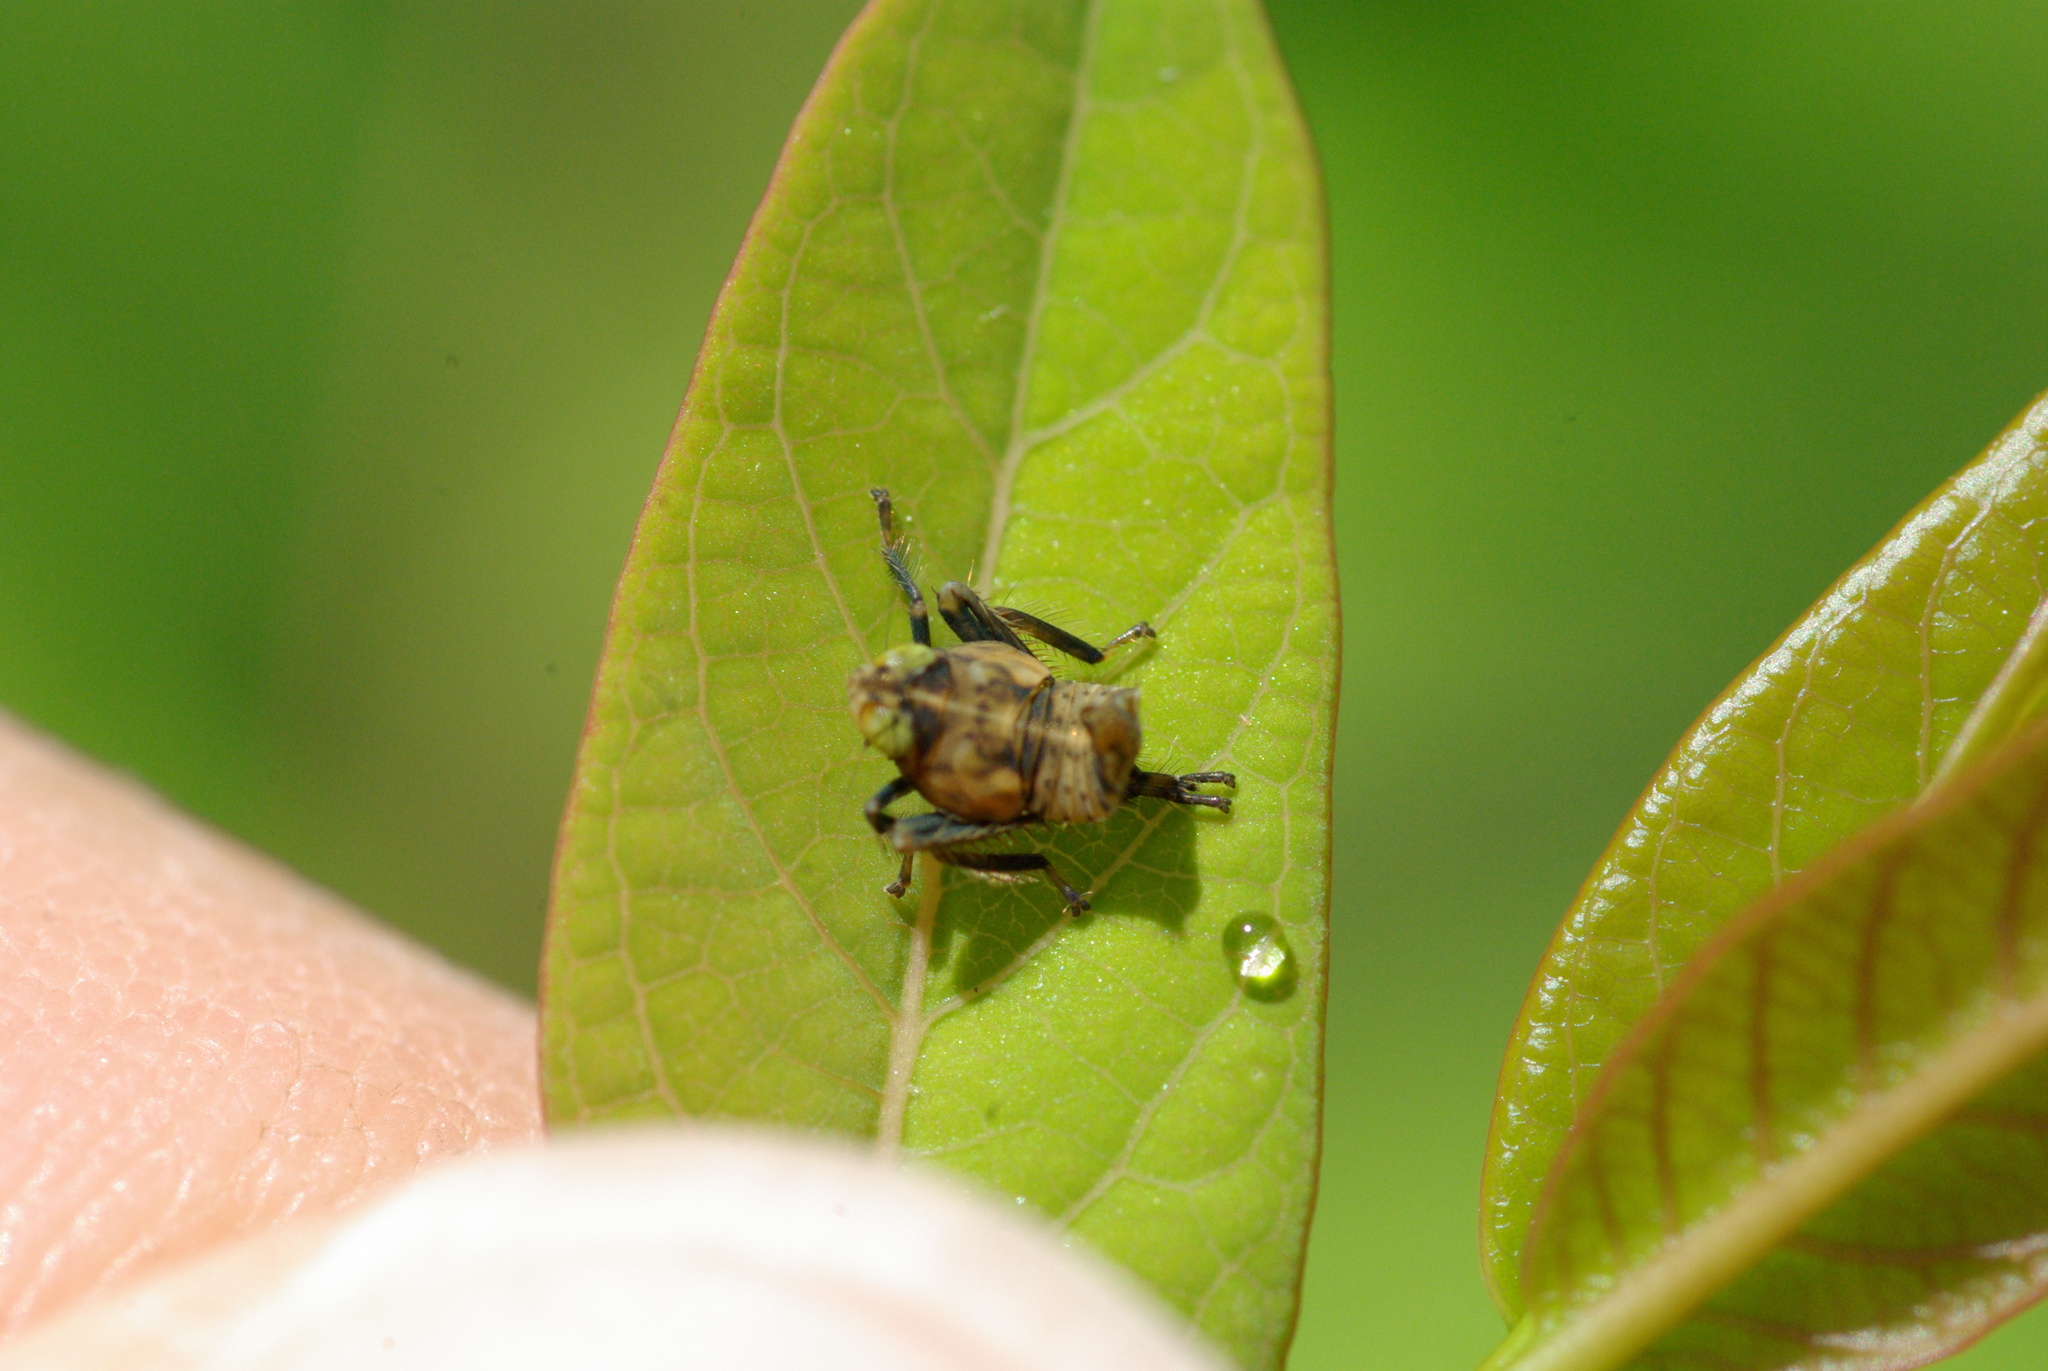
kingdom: Animalia
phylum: Arthropoda
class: Insecta
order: Hemiptera
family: Cicadellidae
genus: Jikradia
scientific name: Jikradia olitoria
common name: Coppery leafhopper
